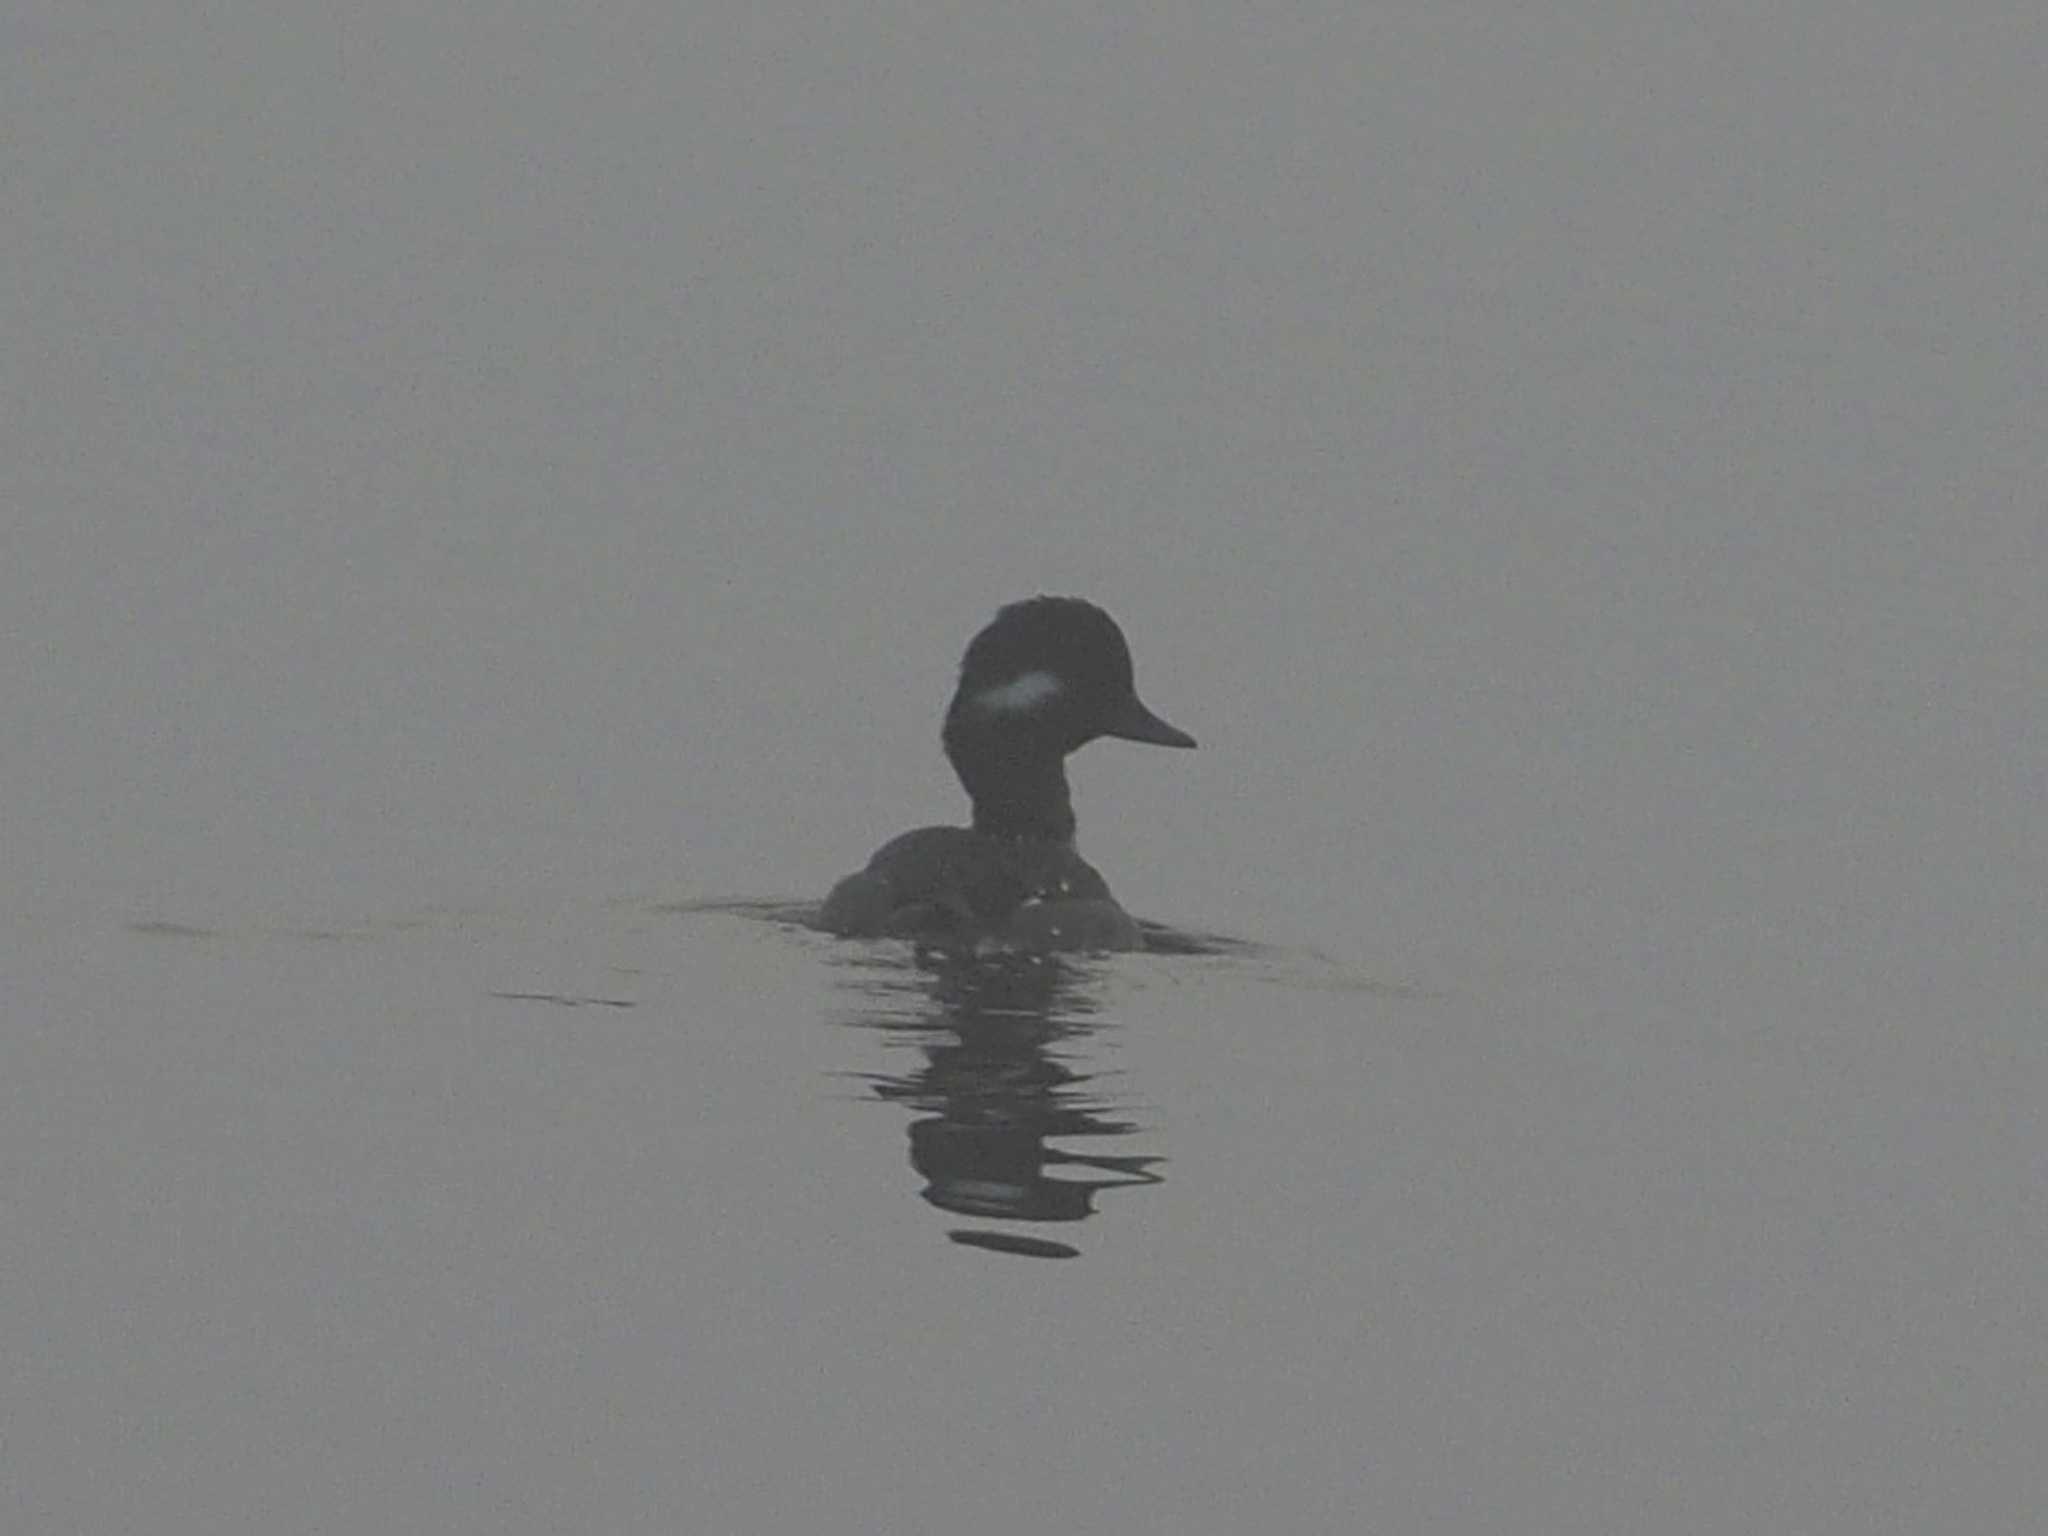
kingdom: Animalia
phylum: Chordata
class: Aves
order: Anseriformes
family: Anatidae
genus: Bucephala
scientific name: Bucephala albeola
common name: Bufflehead
